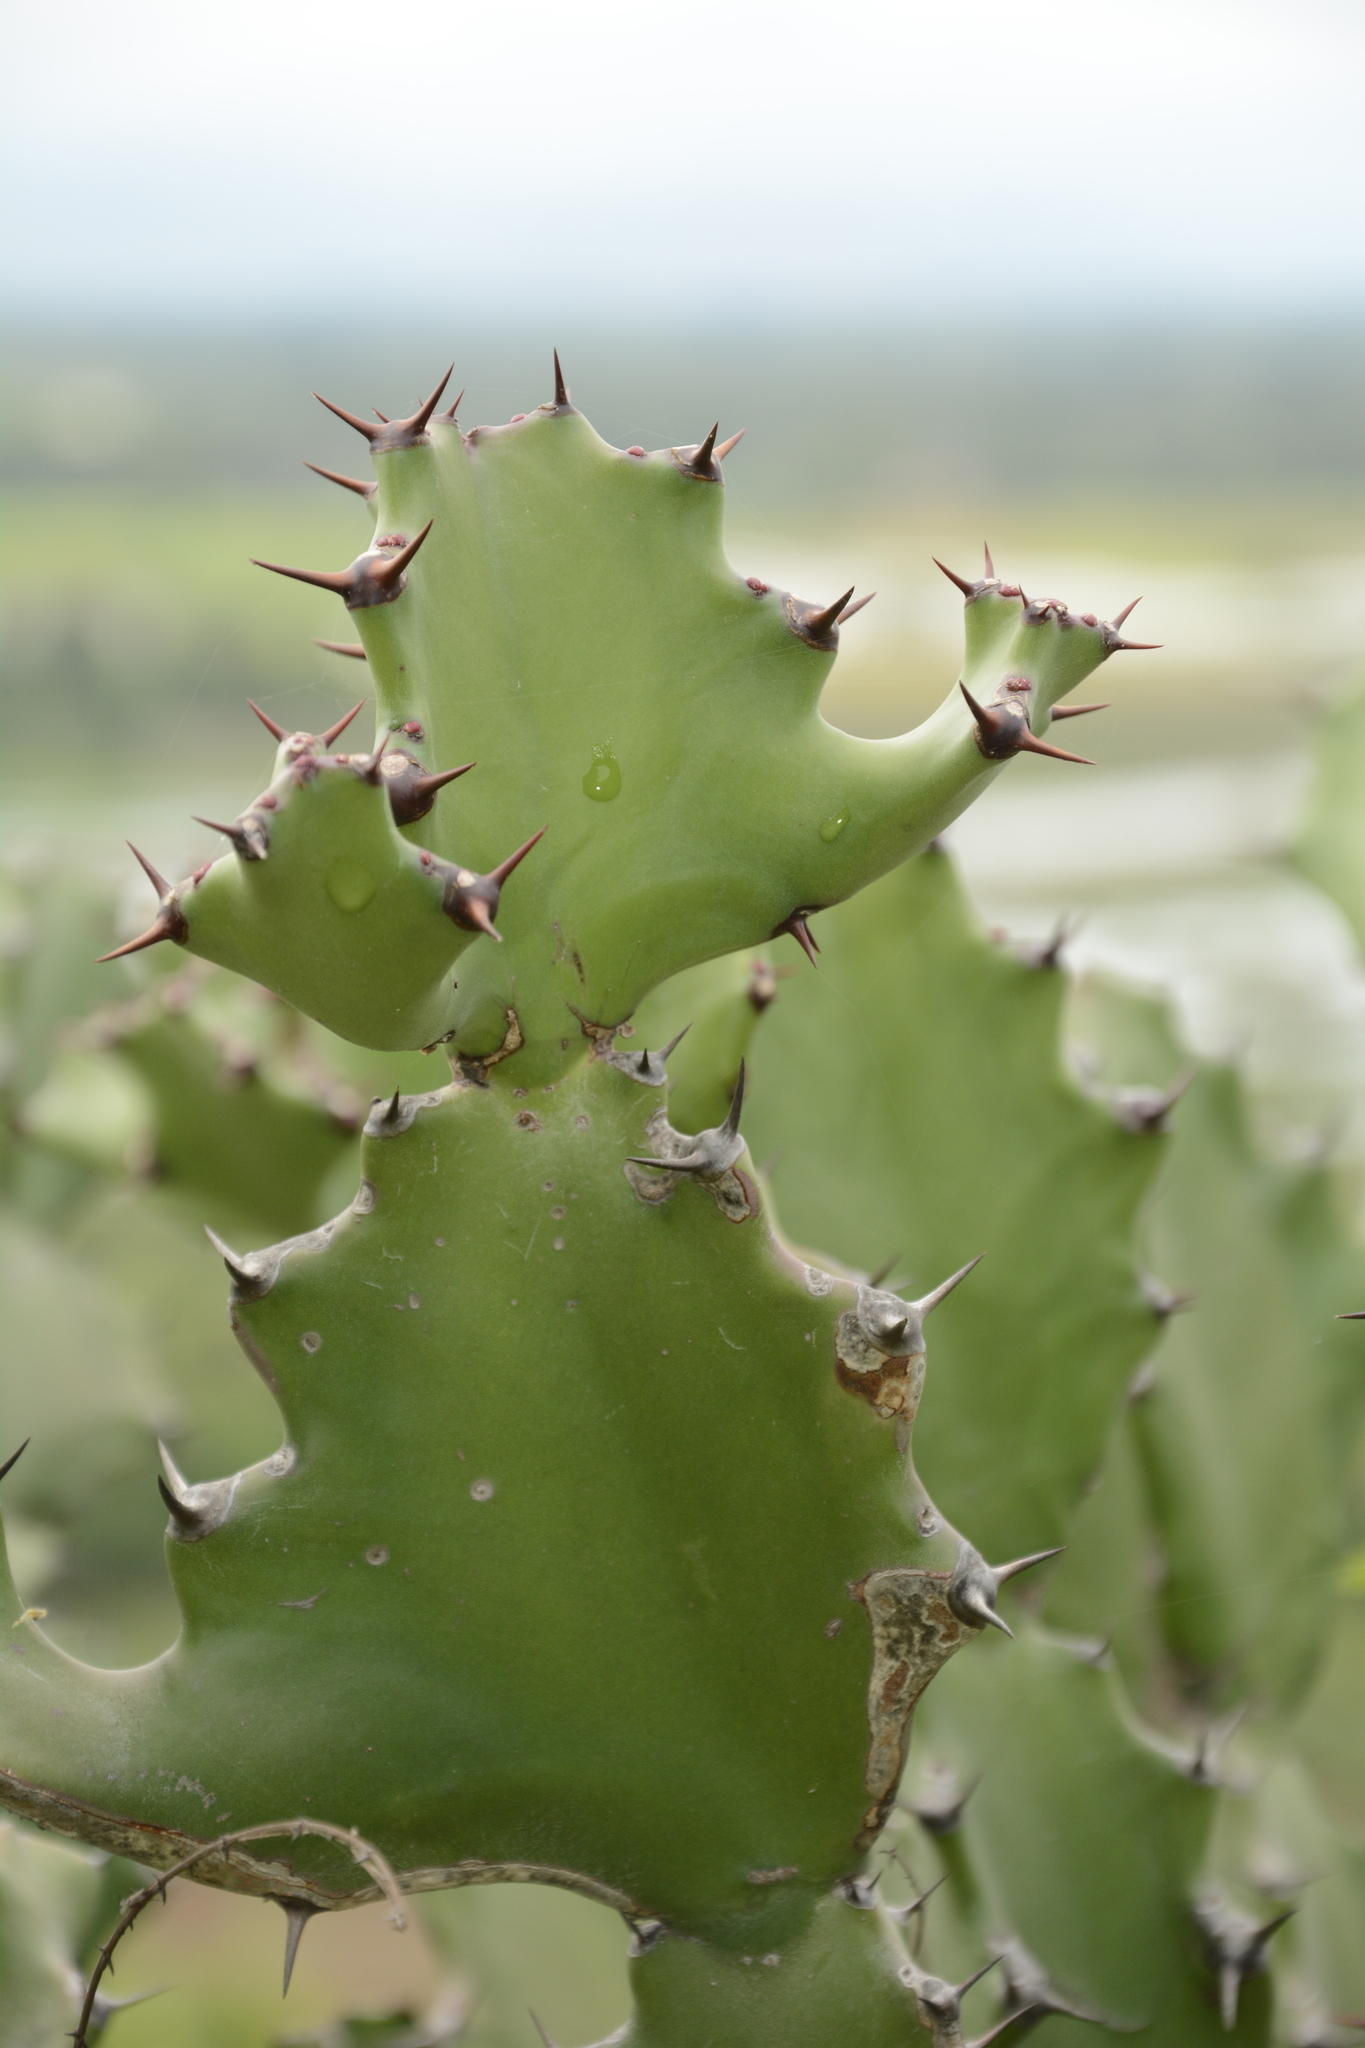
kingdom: Plantae
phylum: Tracheophyta
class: Magnoliopsida
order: Malpighiales
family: Euphorbiaceae
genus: Euphorbia
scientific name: Euphorbia antiquorum
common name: Malayan spurge tree
